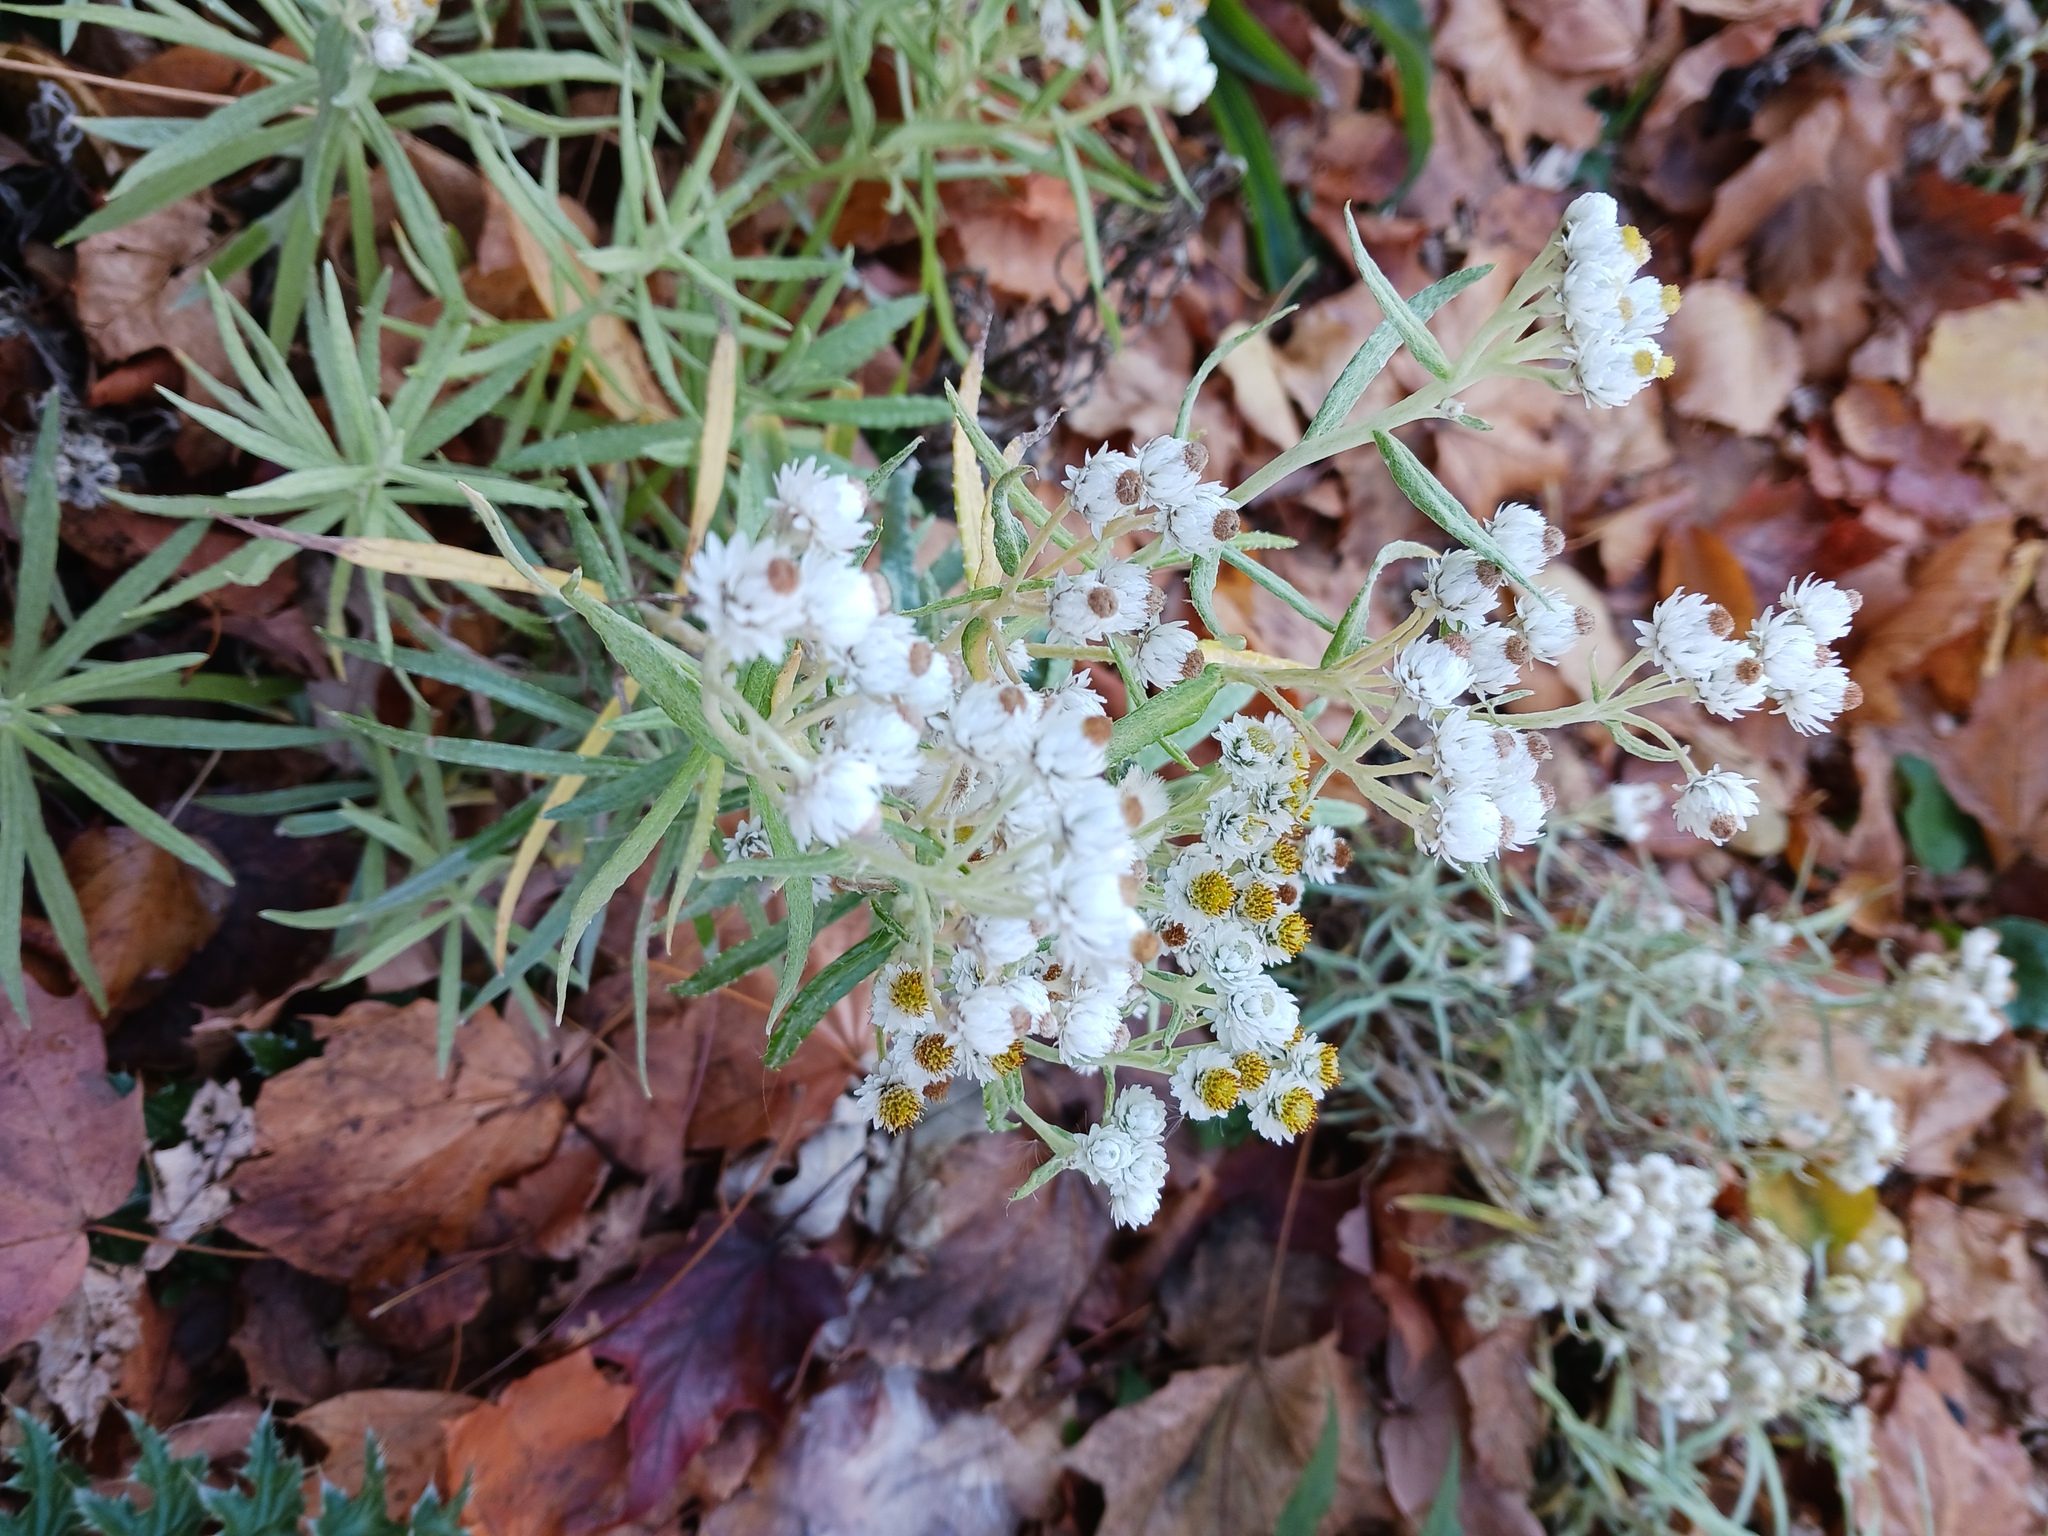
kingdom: Plantae
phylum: Tracheophyta
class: Magnoliopsida
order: Asterales
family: Asteraceae
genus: Anaphalis
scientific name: Anaphalis margaritacea
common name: Pearly everlasting
